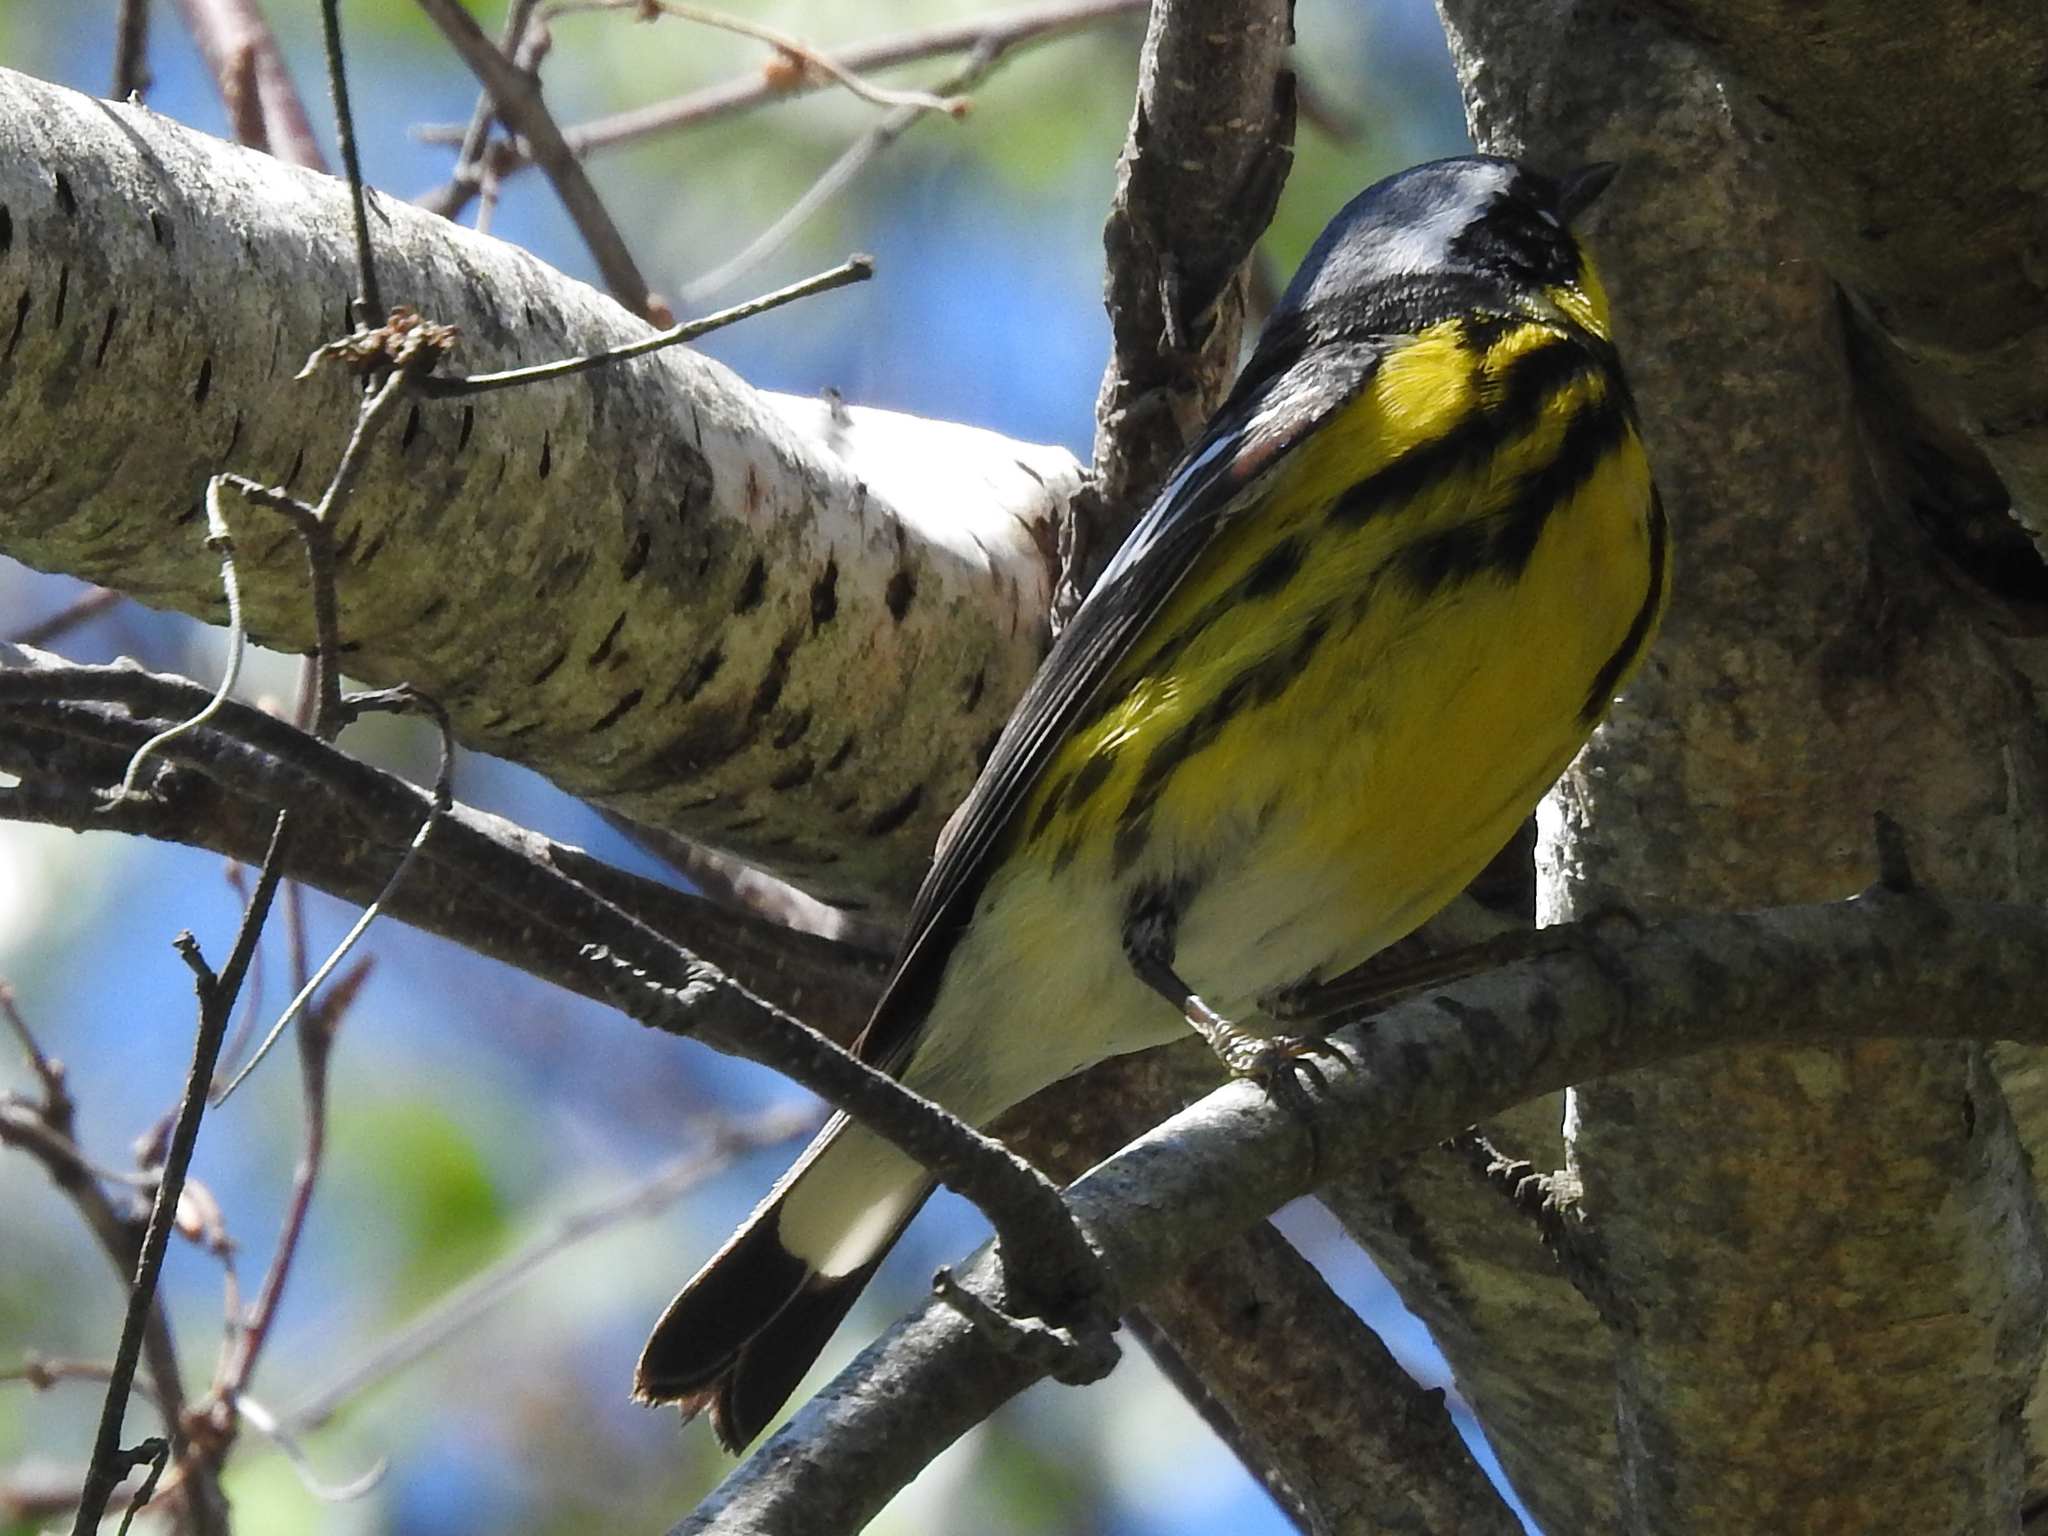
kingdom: Animalia
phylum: Chordata
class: Aves
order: Passeriformes
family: Parulidae
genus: Setophaga
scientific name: Setophaga magnolia
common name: Magnolia warbler
